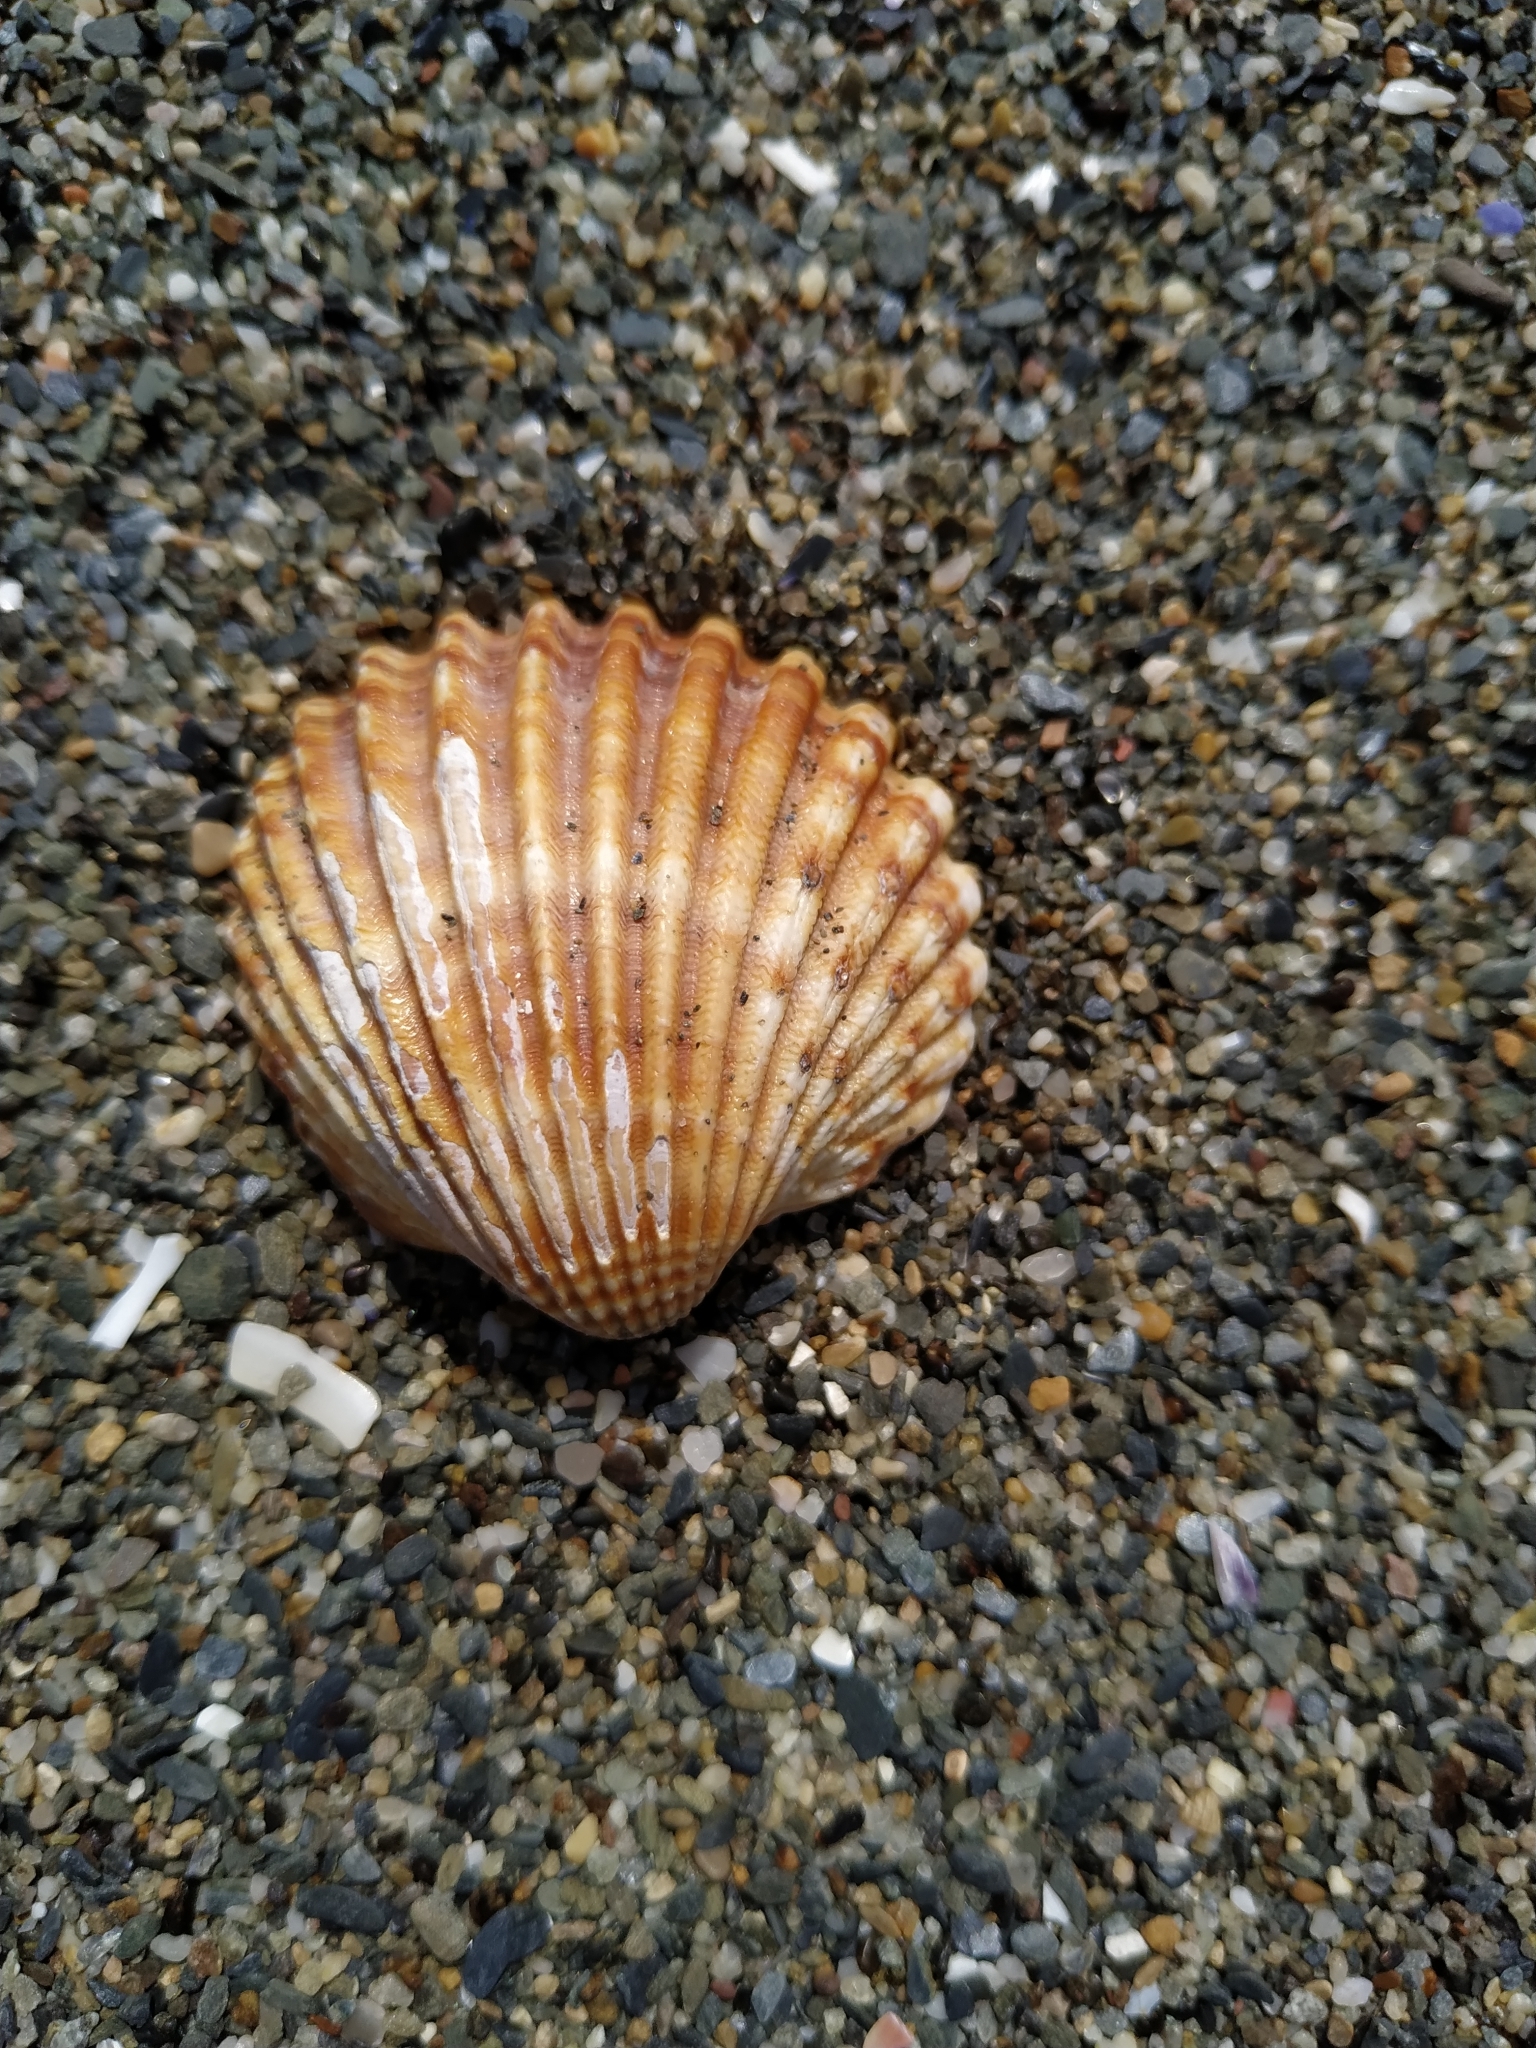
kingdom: Animalia
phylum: Mollusca
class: Bivalvia
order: Cardiida
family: Cardiidae
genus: Acanthocardia
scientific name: Acanthocardia tuberculata
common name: Rough cockle
